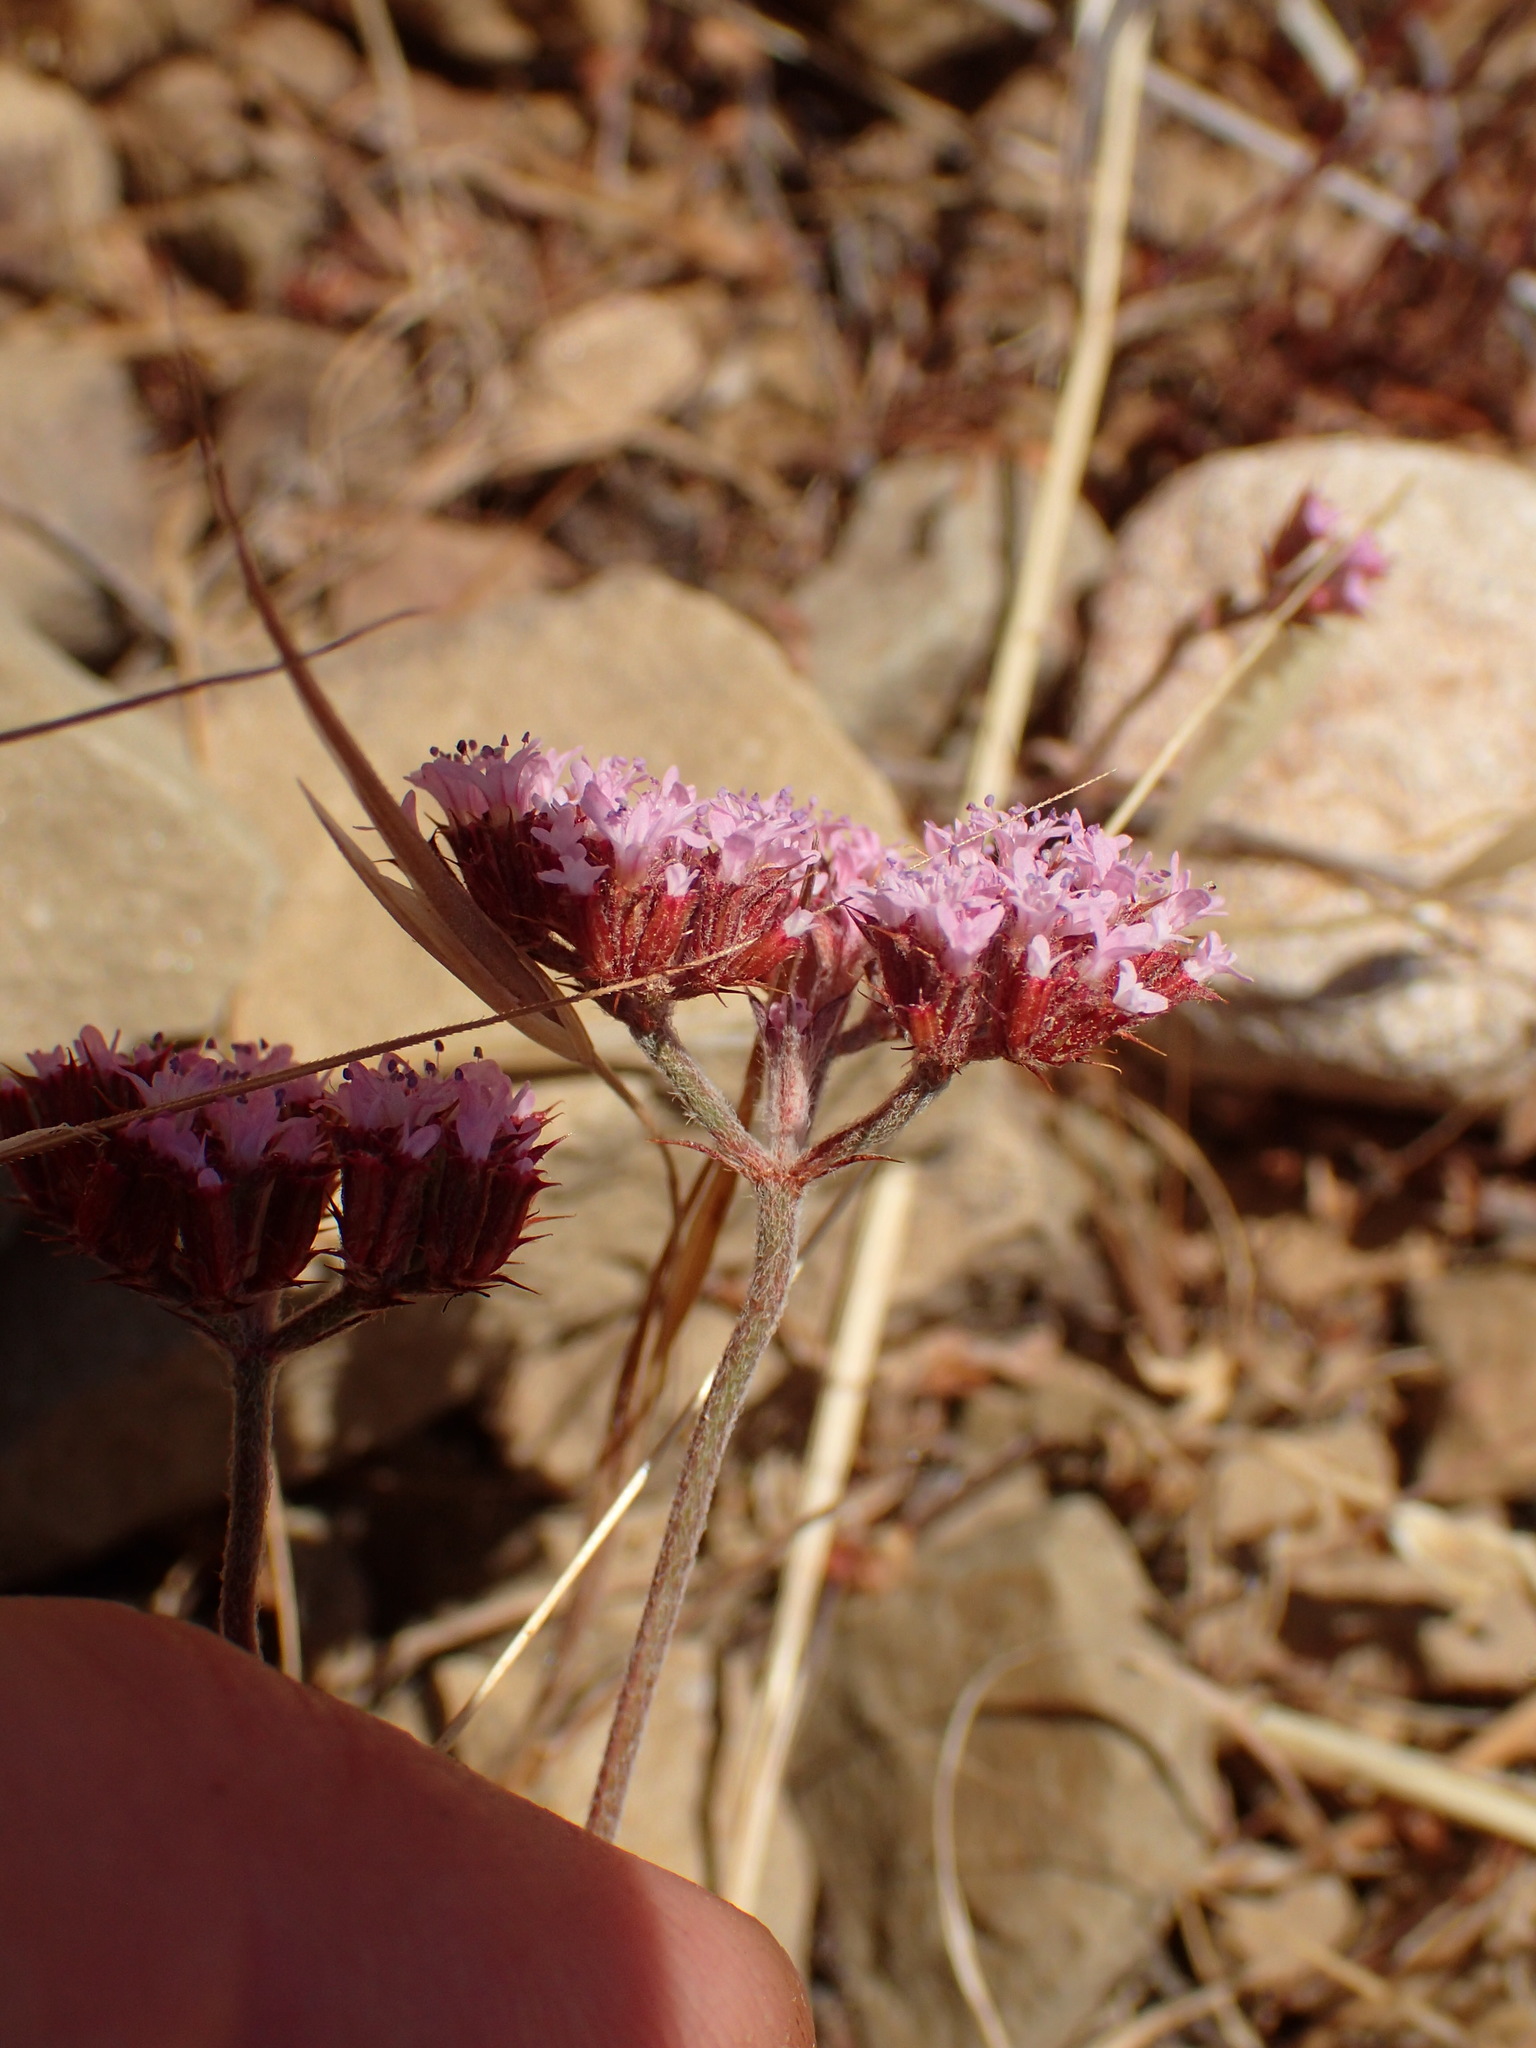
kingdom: Plantae
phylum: Tracheophyta
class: Magnoliopsida
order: Caryophyllales
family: Polygonaceae
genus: Chorizanthe
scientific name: Chorizanthe staticoides
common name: Turkish rugging
